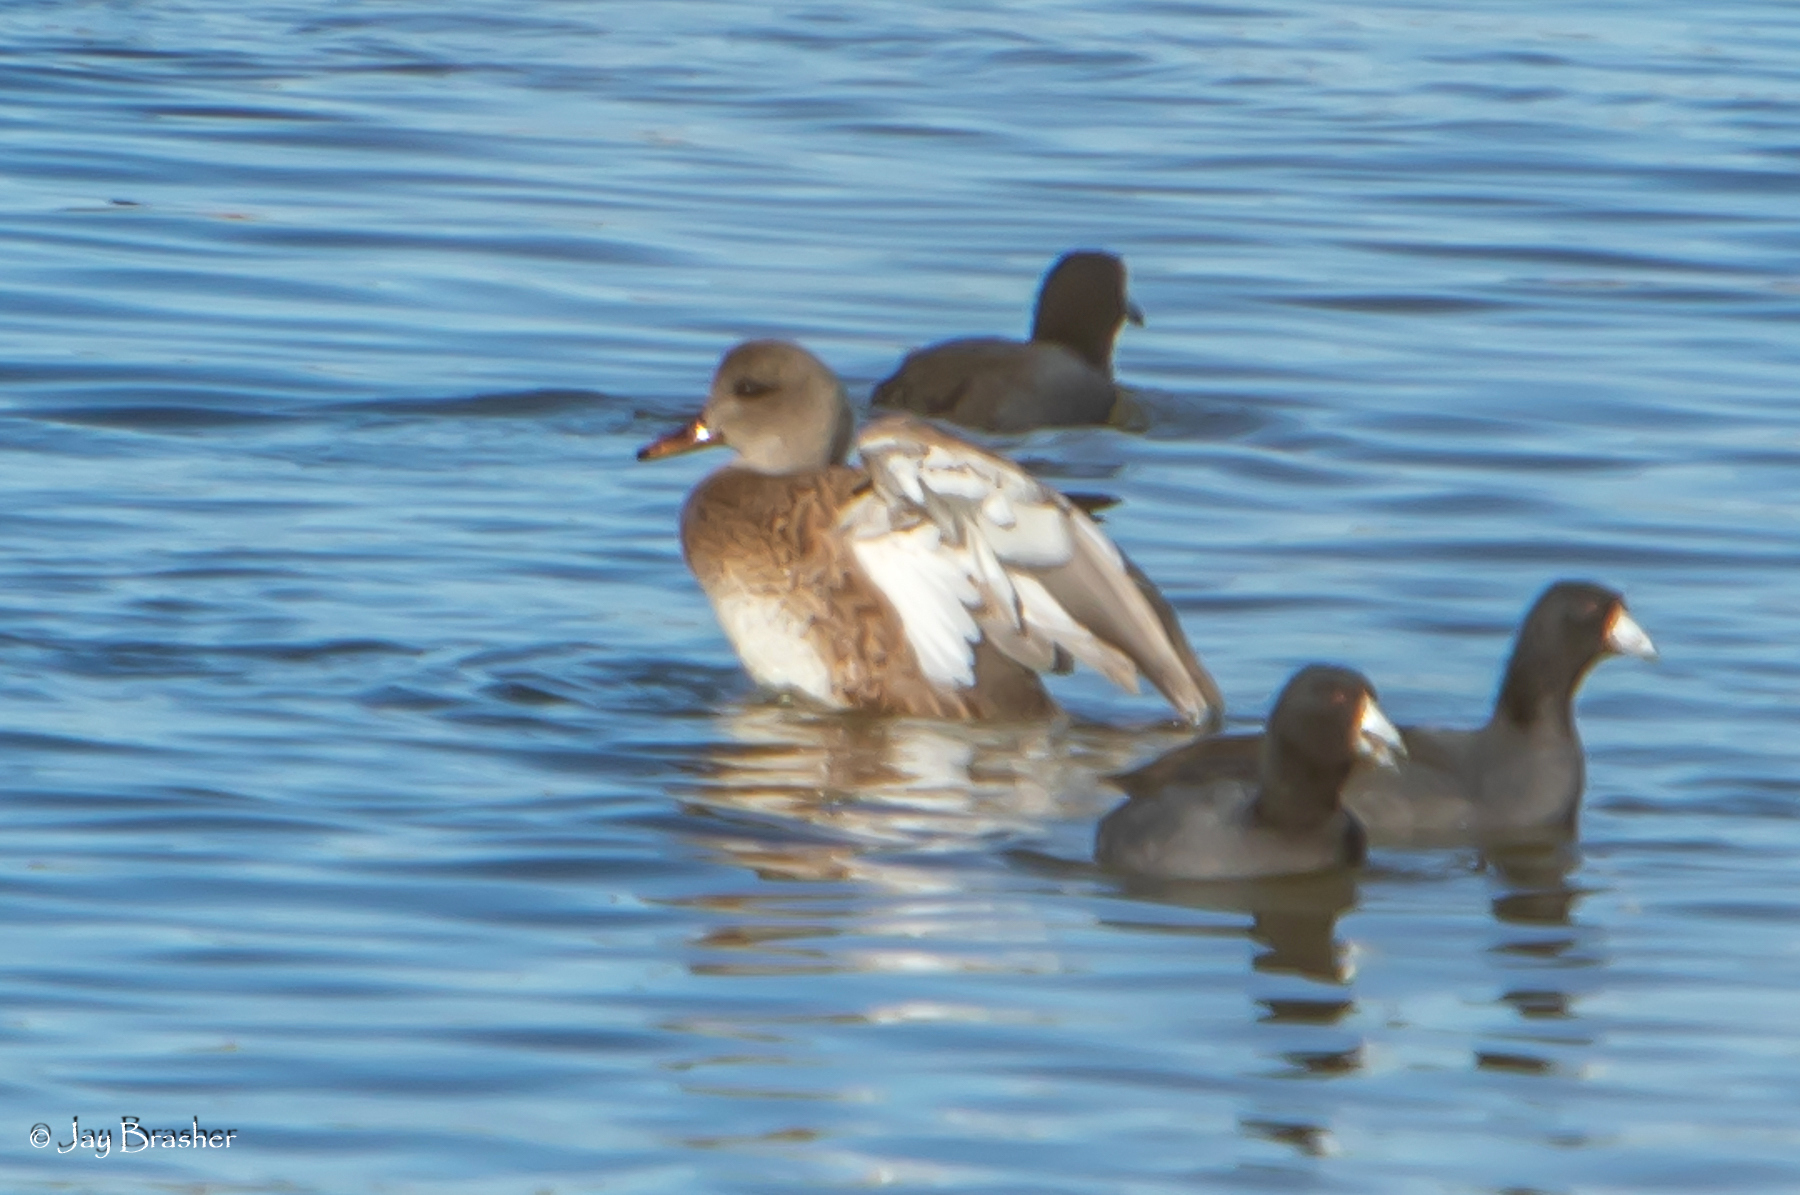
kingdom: Animalia
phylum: Chordata
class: Aves
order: Anseriformes
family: Anatidae
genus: Mareca
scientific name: Mareca strepera
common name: Gadwall
